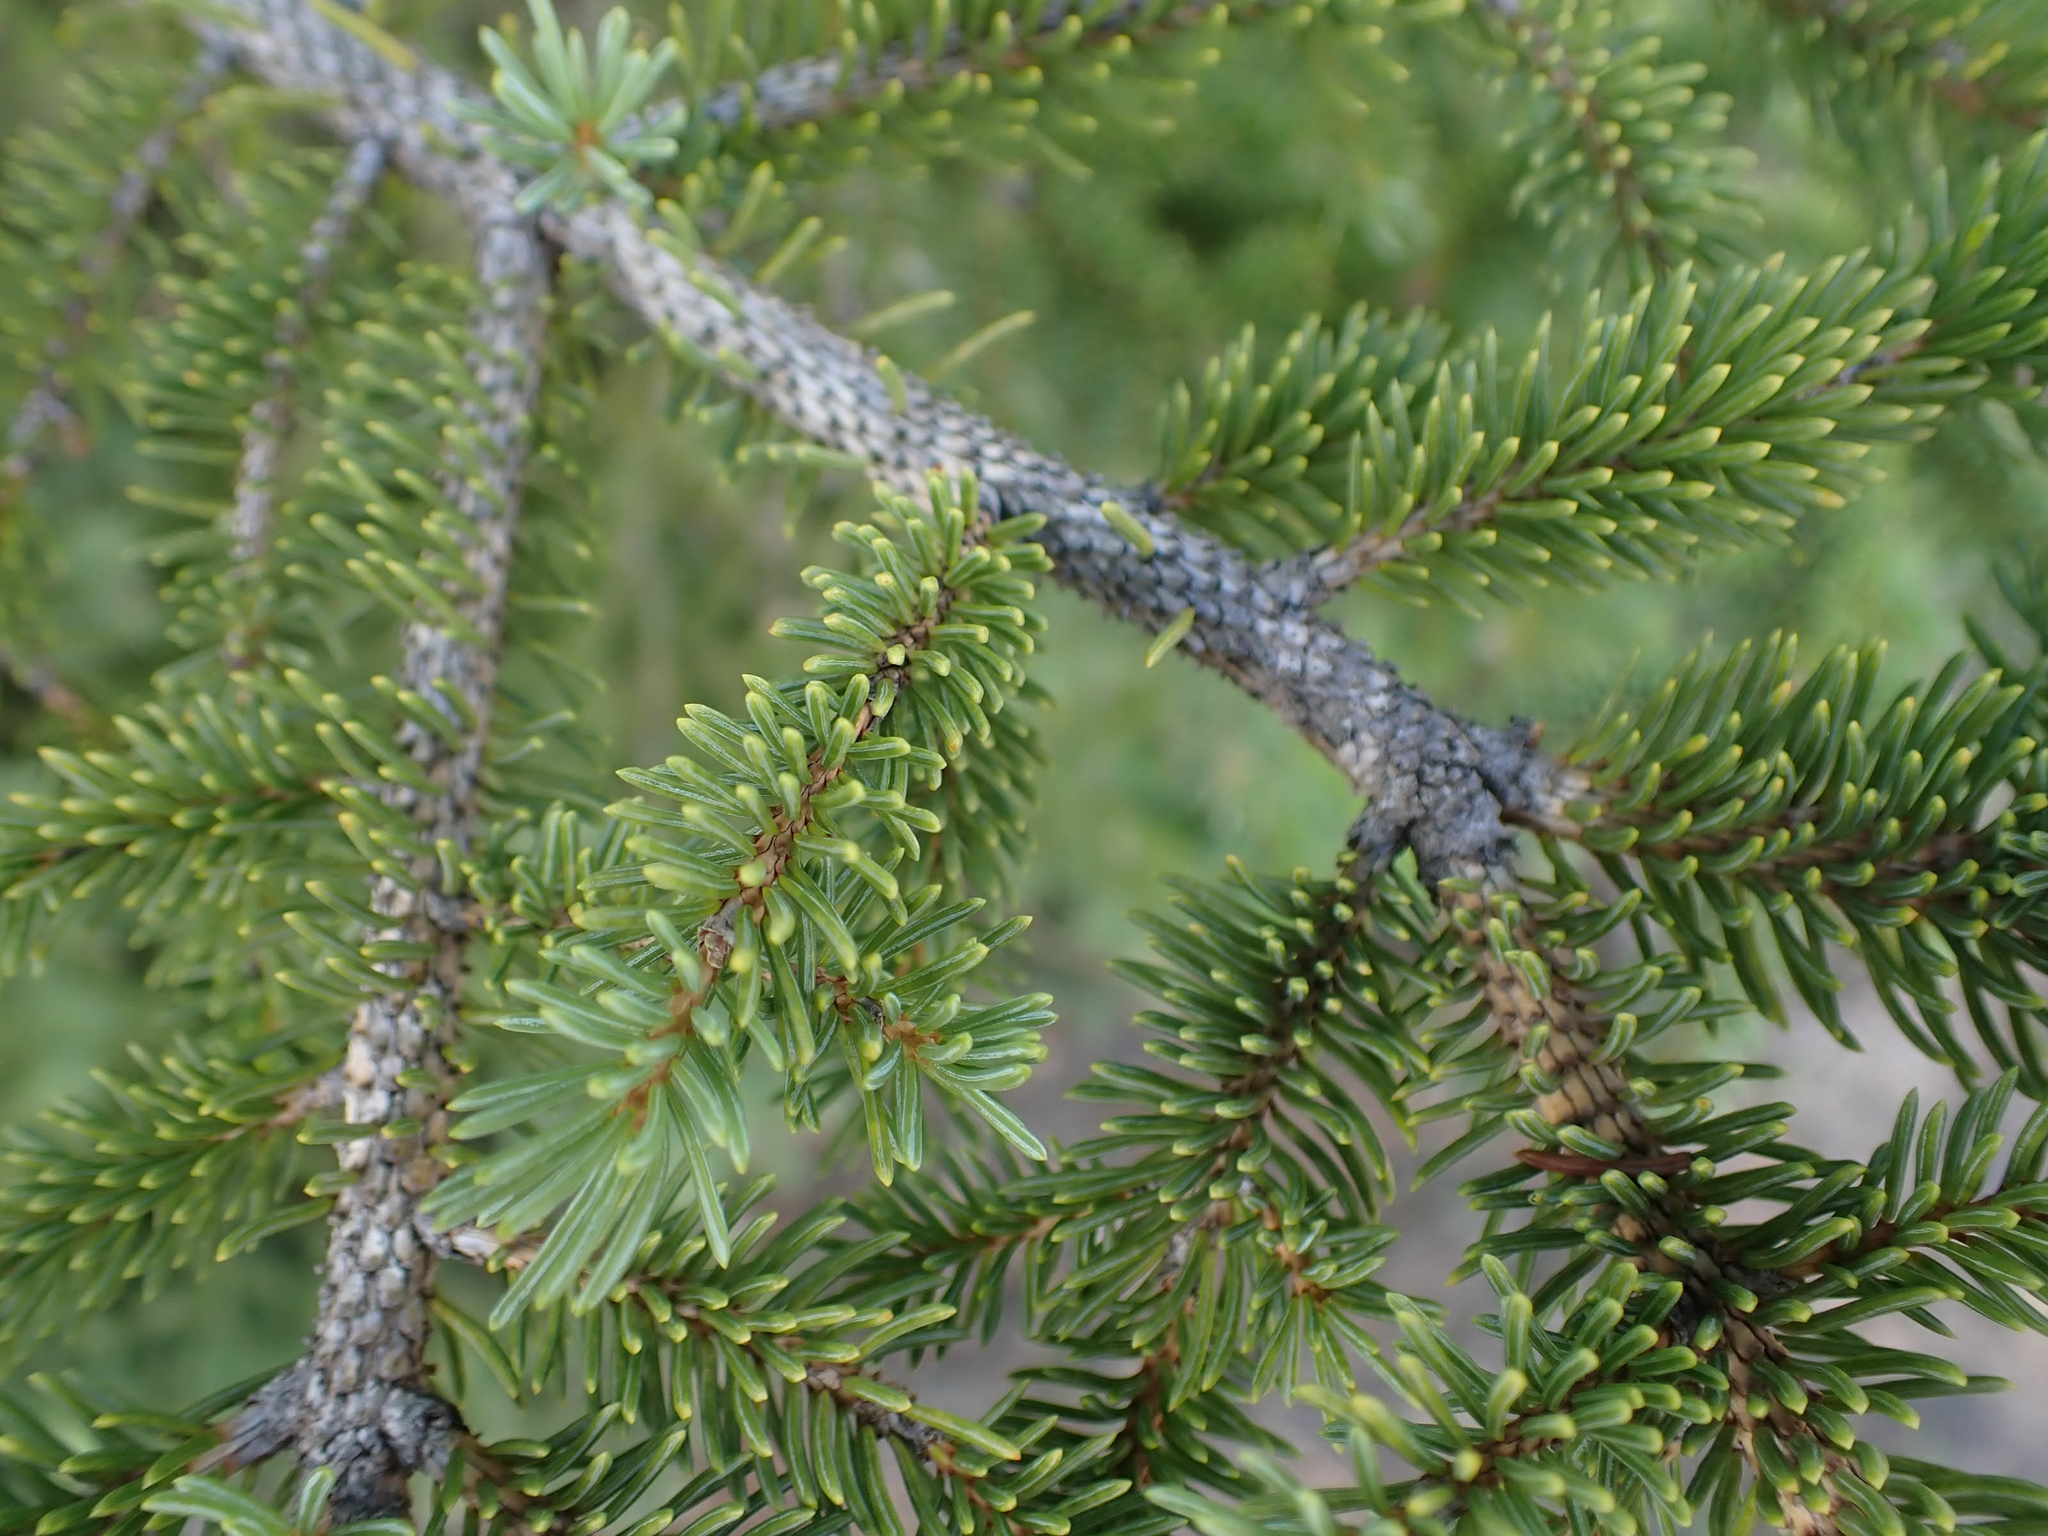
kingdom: Plantae
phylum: Tracheophyta
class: Pinopsida
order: Pinales
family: Pinaceae
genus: Picea
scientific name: Picea glauca
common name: White spruce
